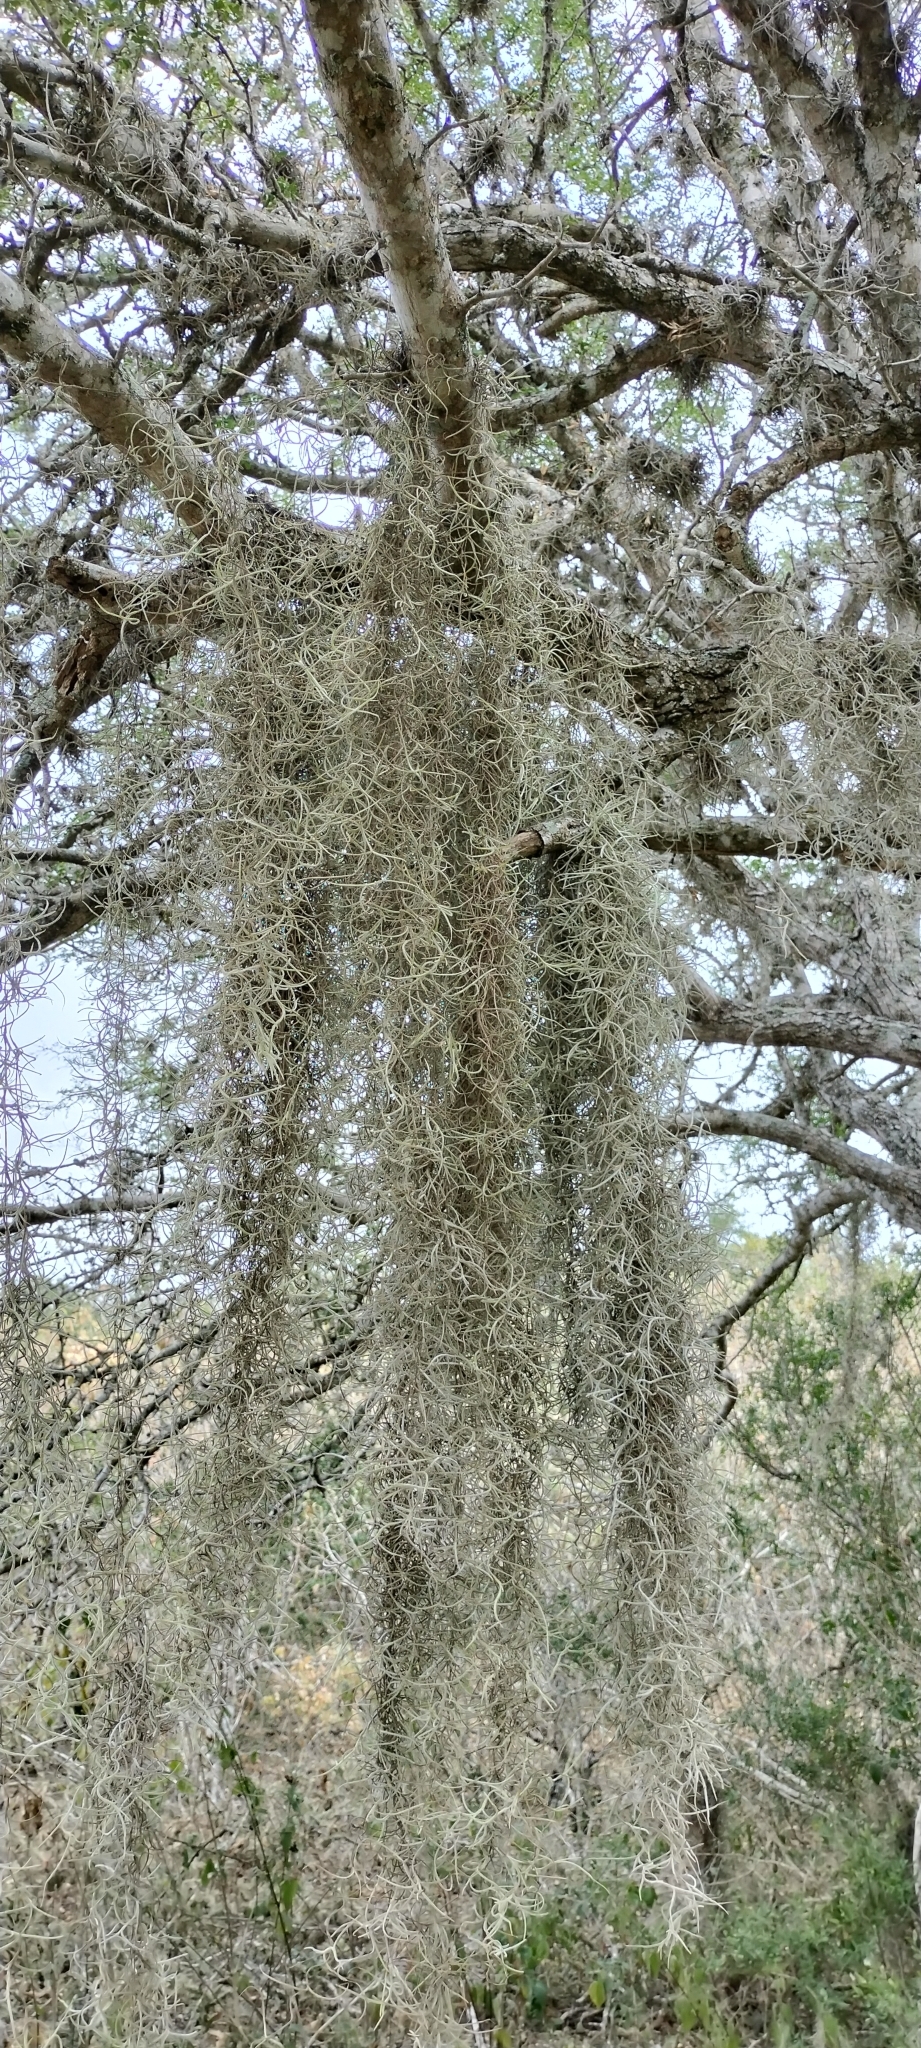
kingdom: Plantae
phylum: Tracheophyta
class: Liliopsida
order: Poales
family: Bromeliaceae
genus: Tillandsia
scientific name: Tillandsia usneoides
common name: Spanish moss
